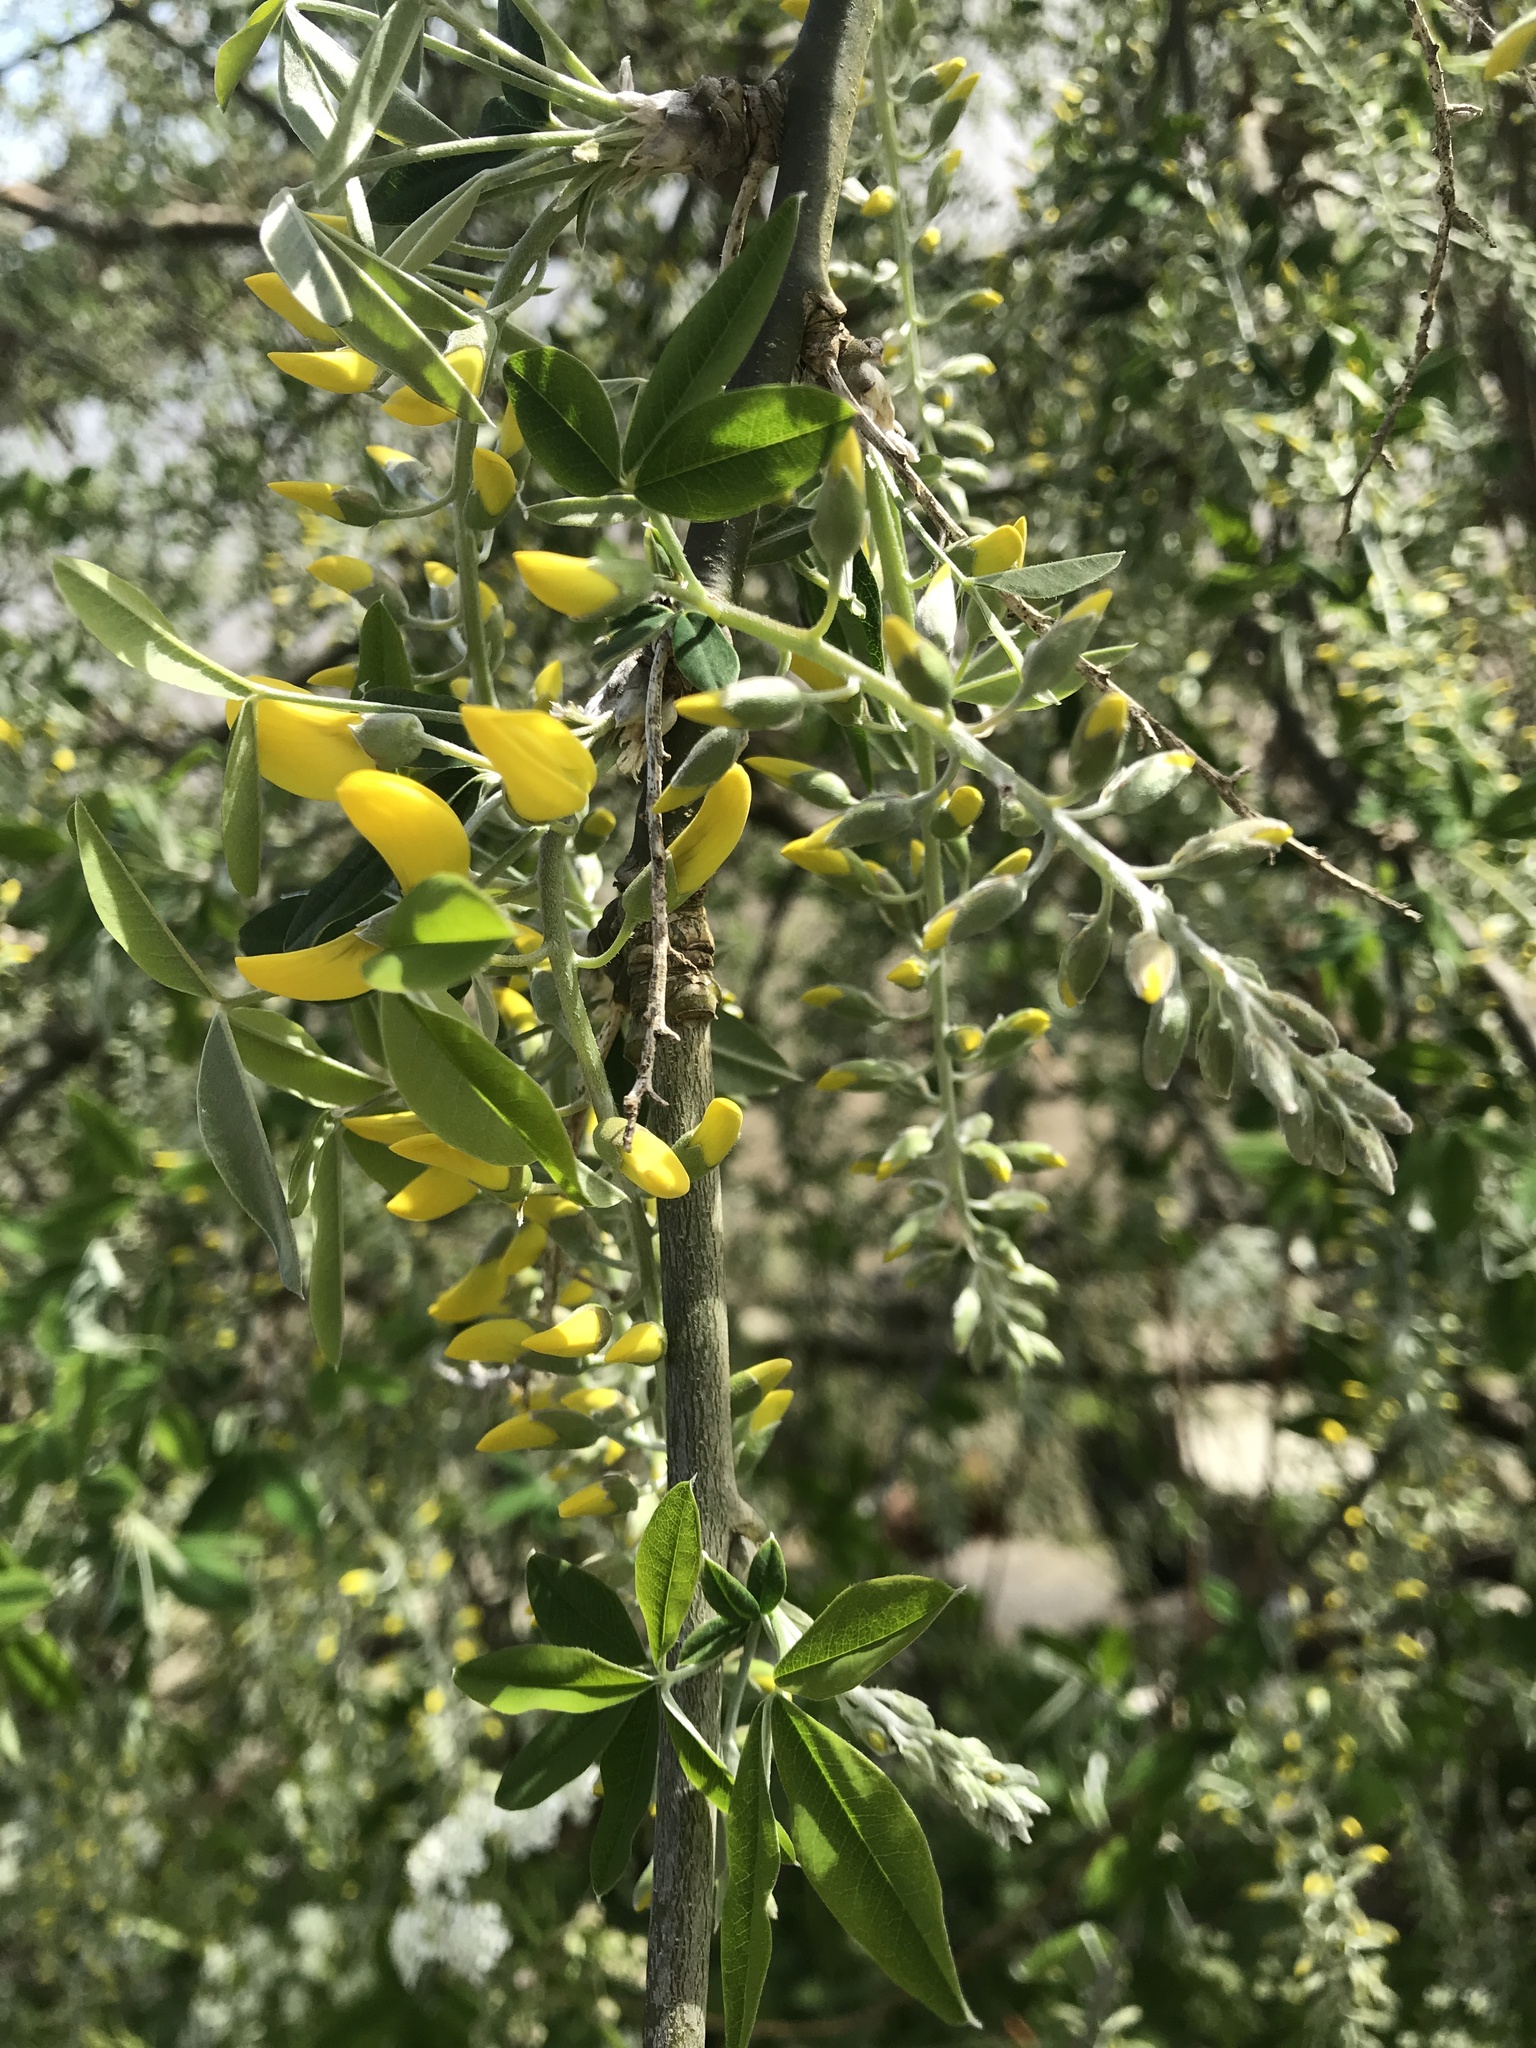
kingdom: Plantae
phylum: Tracheophyta
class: Magnoliopsida
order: Fabales
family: Fabaceae
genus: Laburnum
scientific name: Laburnum anagyroides
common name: Laburnum
